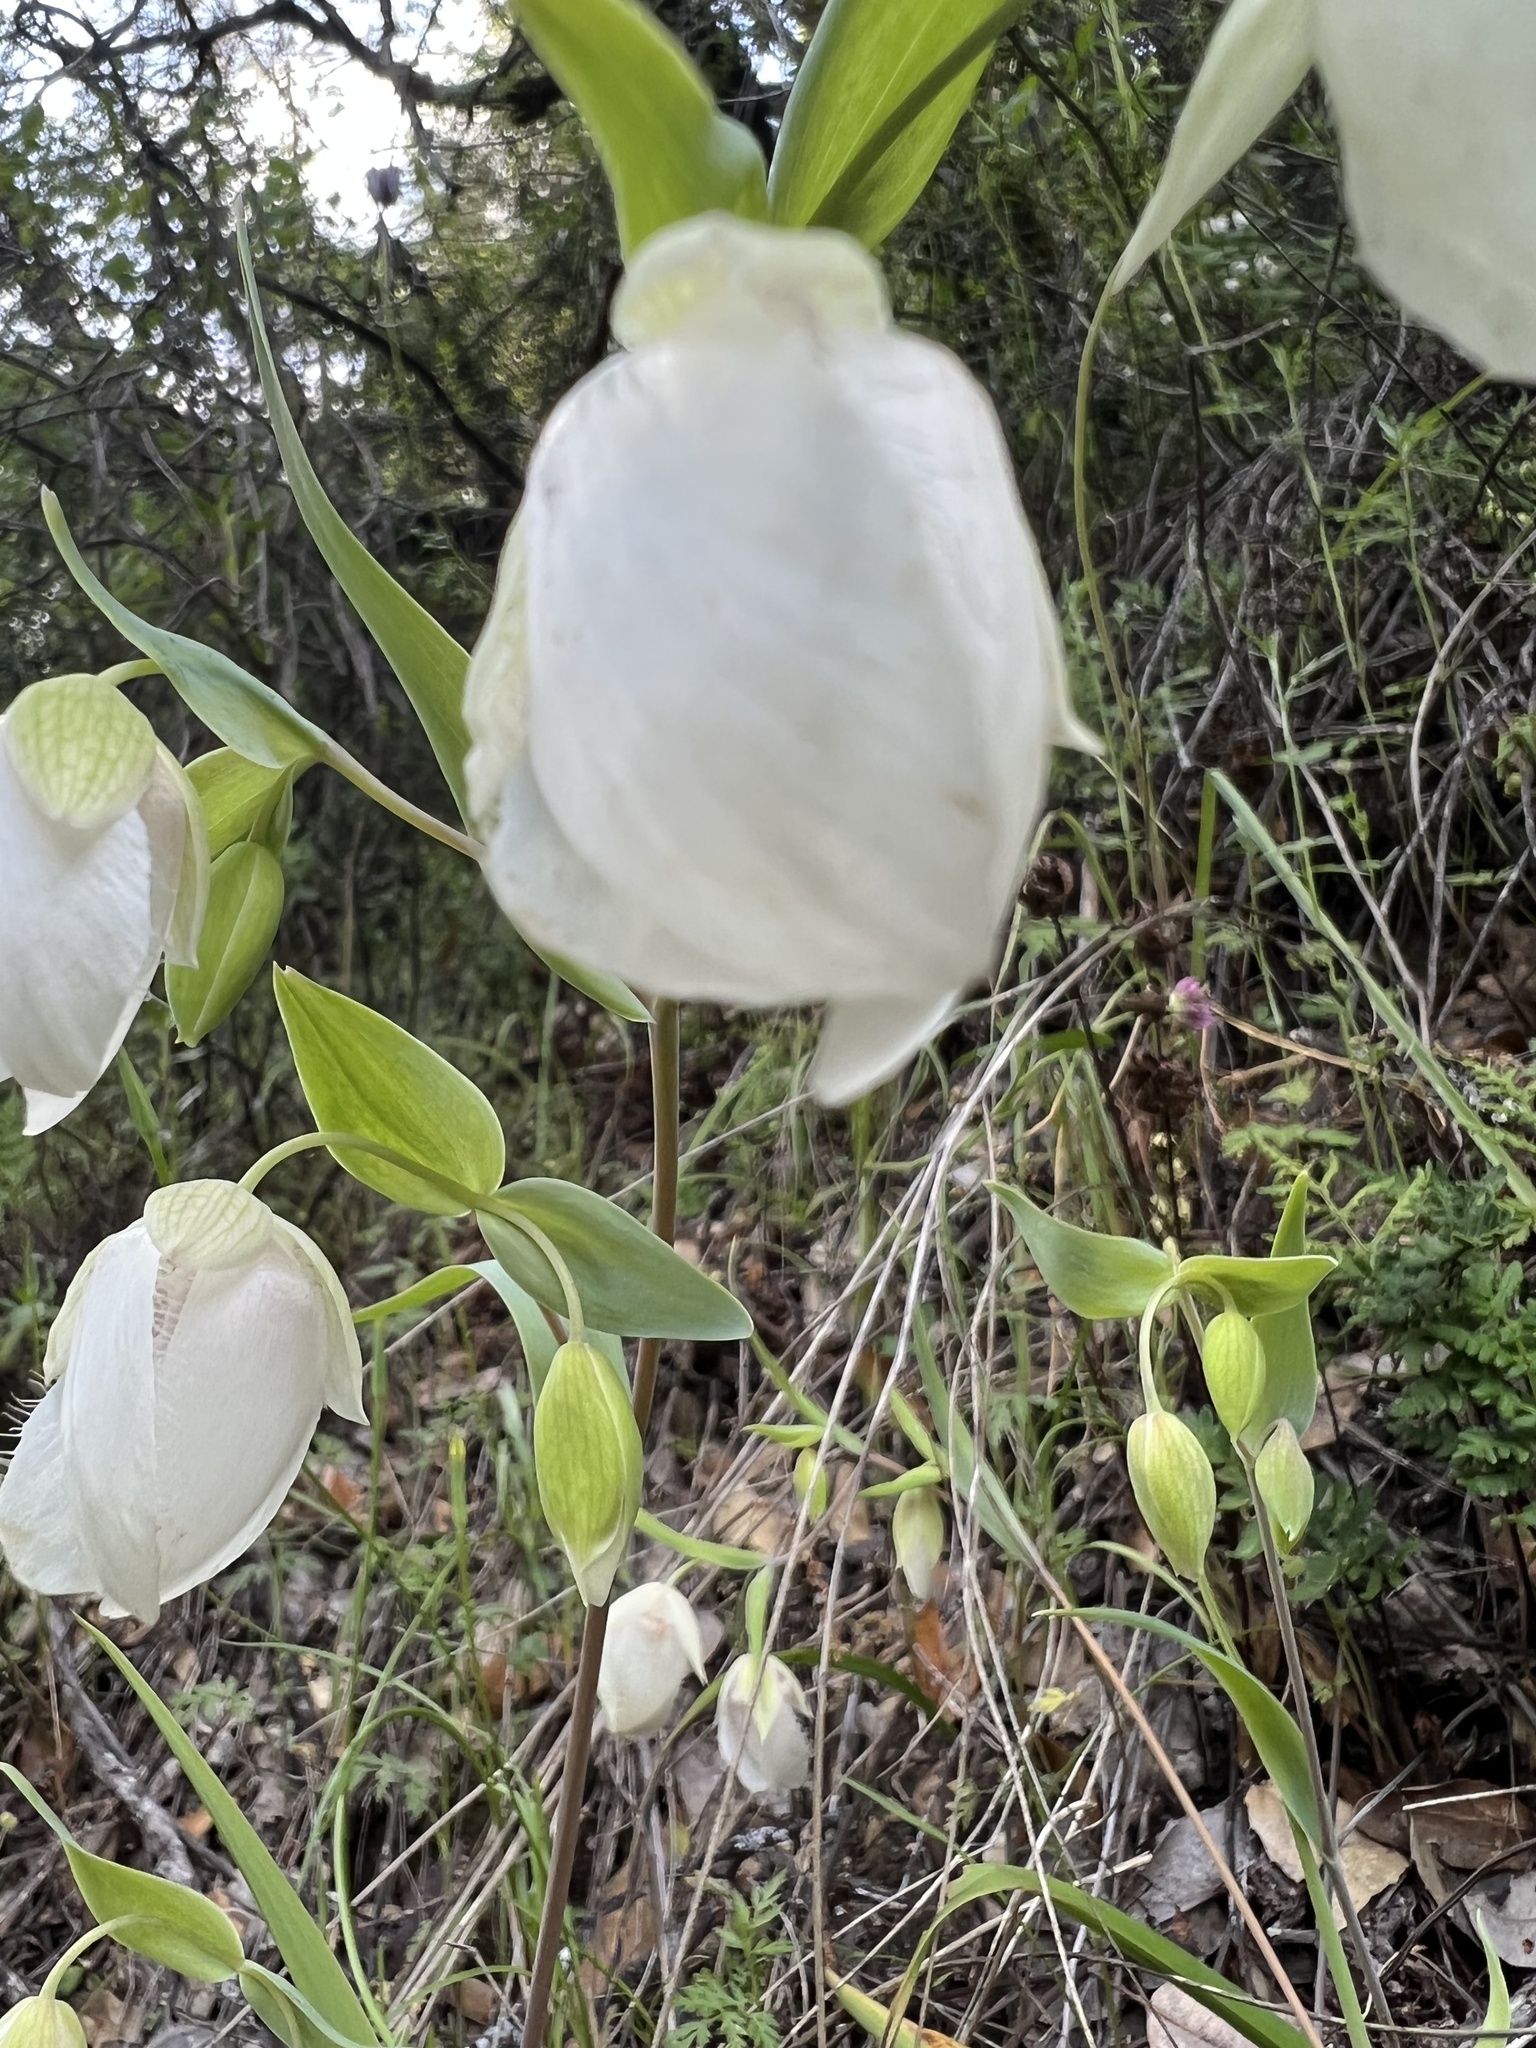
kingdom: Plantae
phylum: Tracheophyta
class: Liliopsida
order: Liliales
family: Liliaceae
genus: Calochortus
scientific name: Calochortus albus
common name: Fairy-lantern
